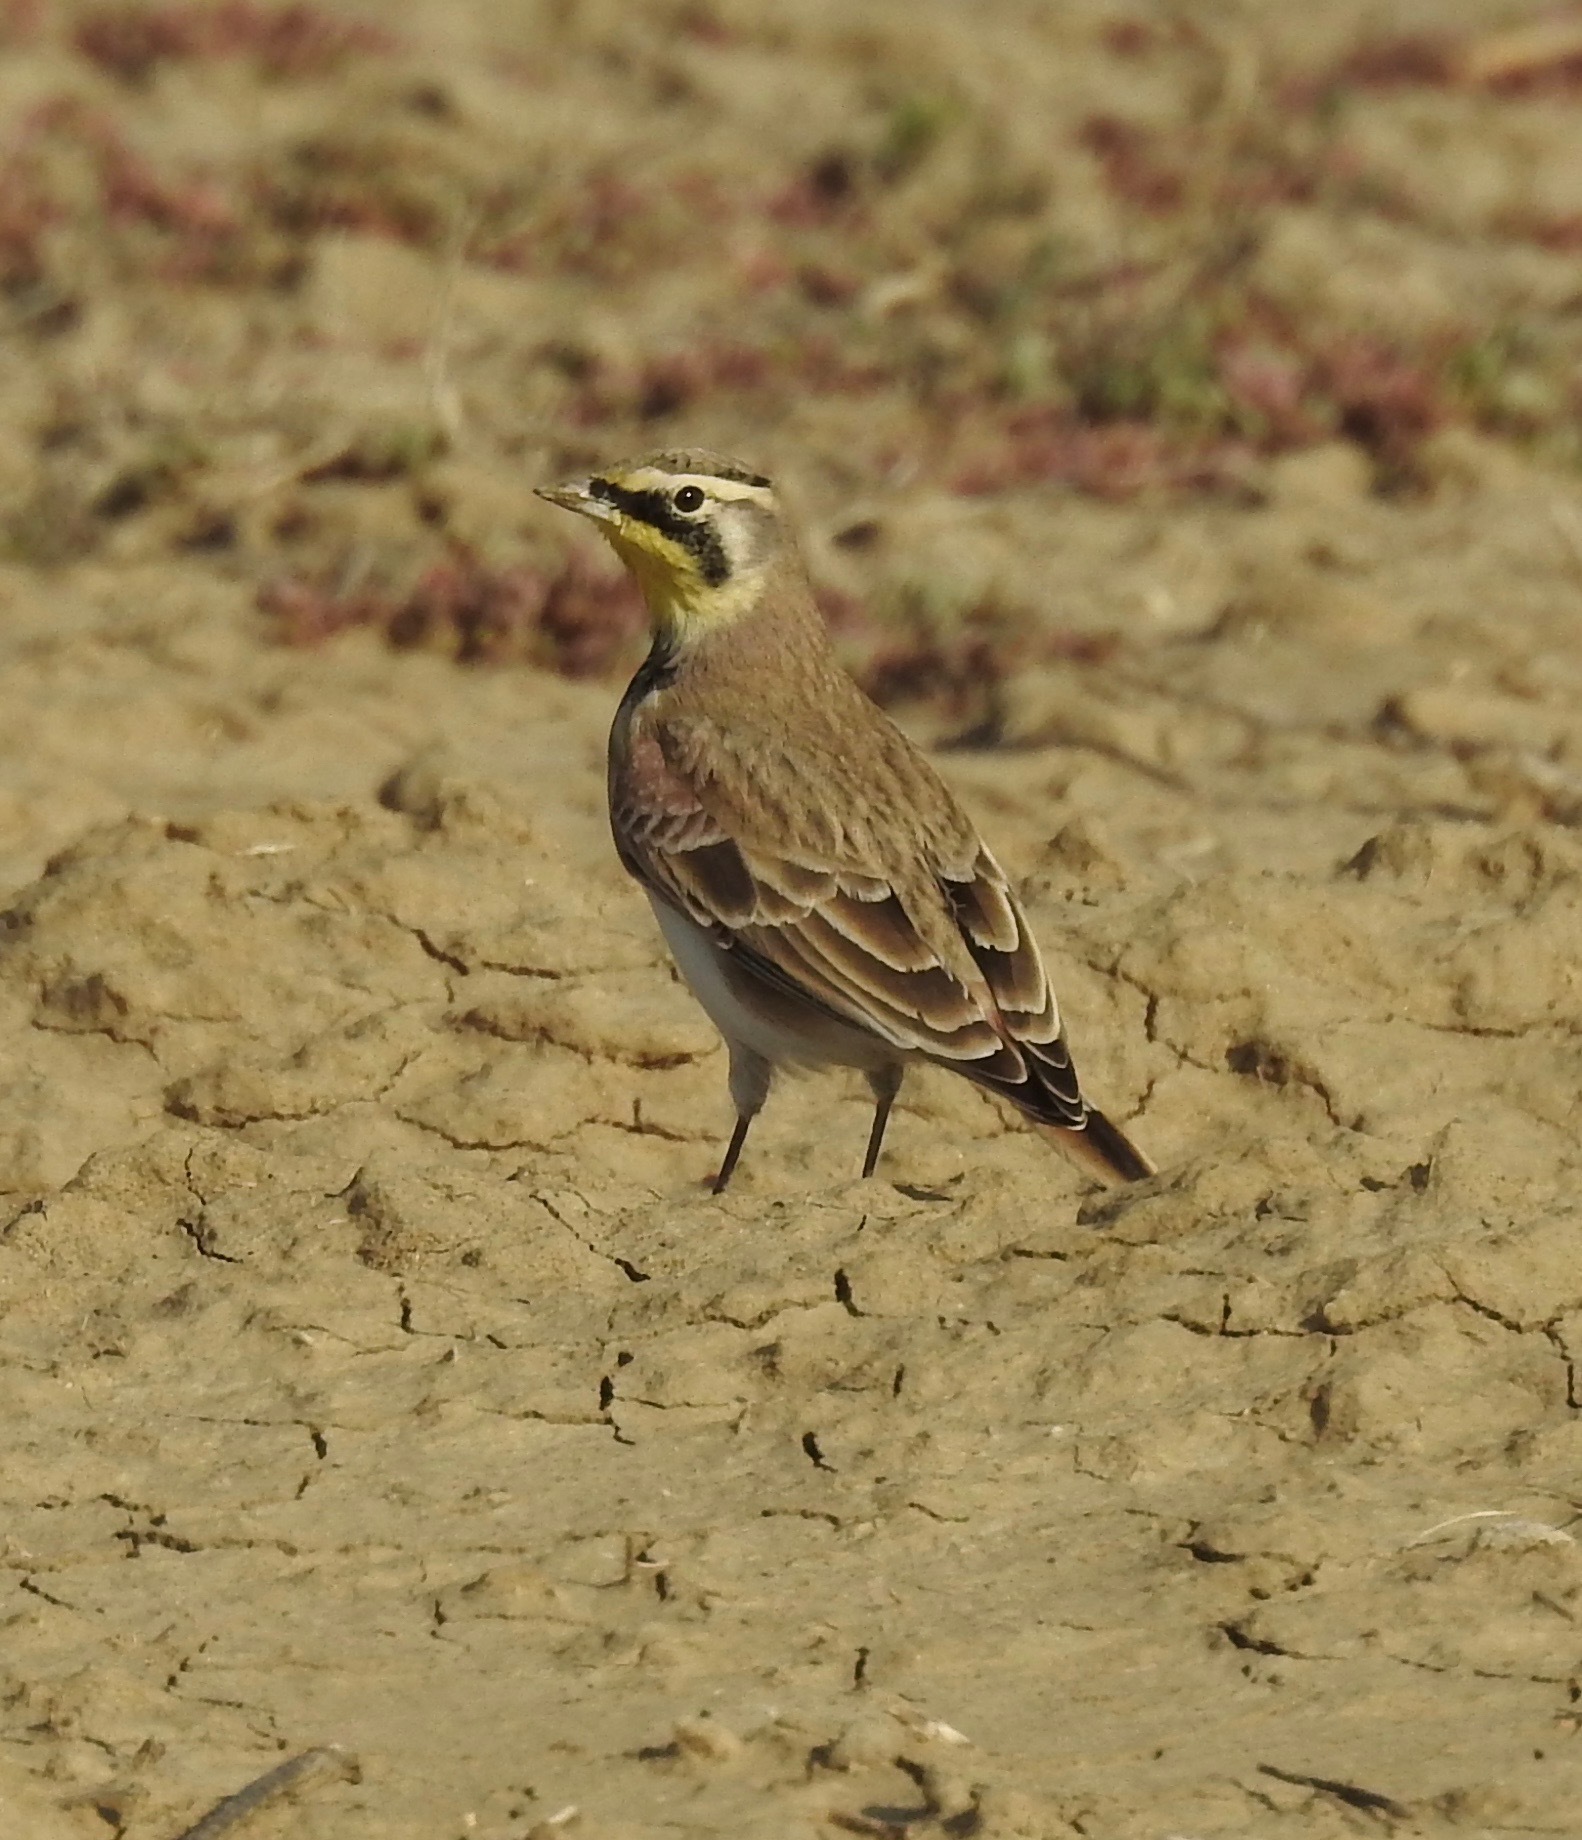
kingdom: Animalia
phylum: Chordata
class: Aves
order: Passeriformes
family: Alaudidae
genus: Eremophila
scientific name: Eremophila alpestris
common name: Horned lark
